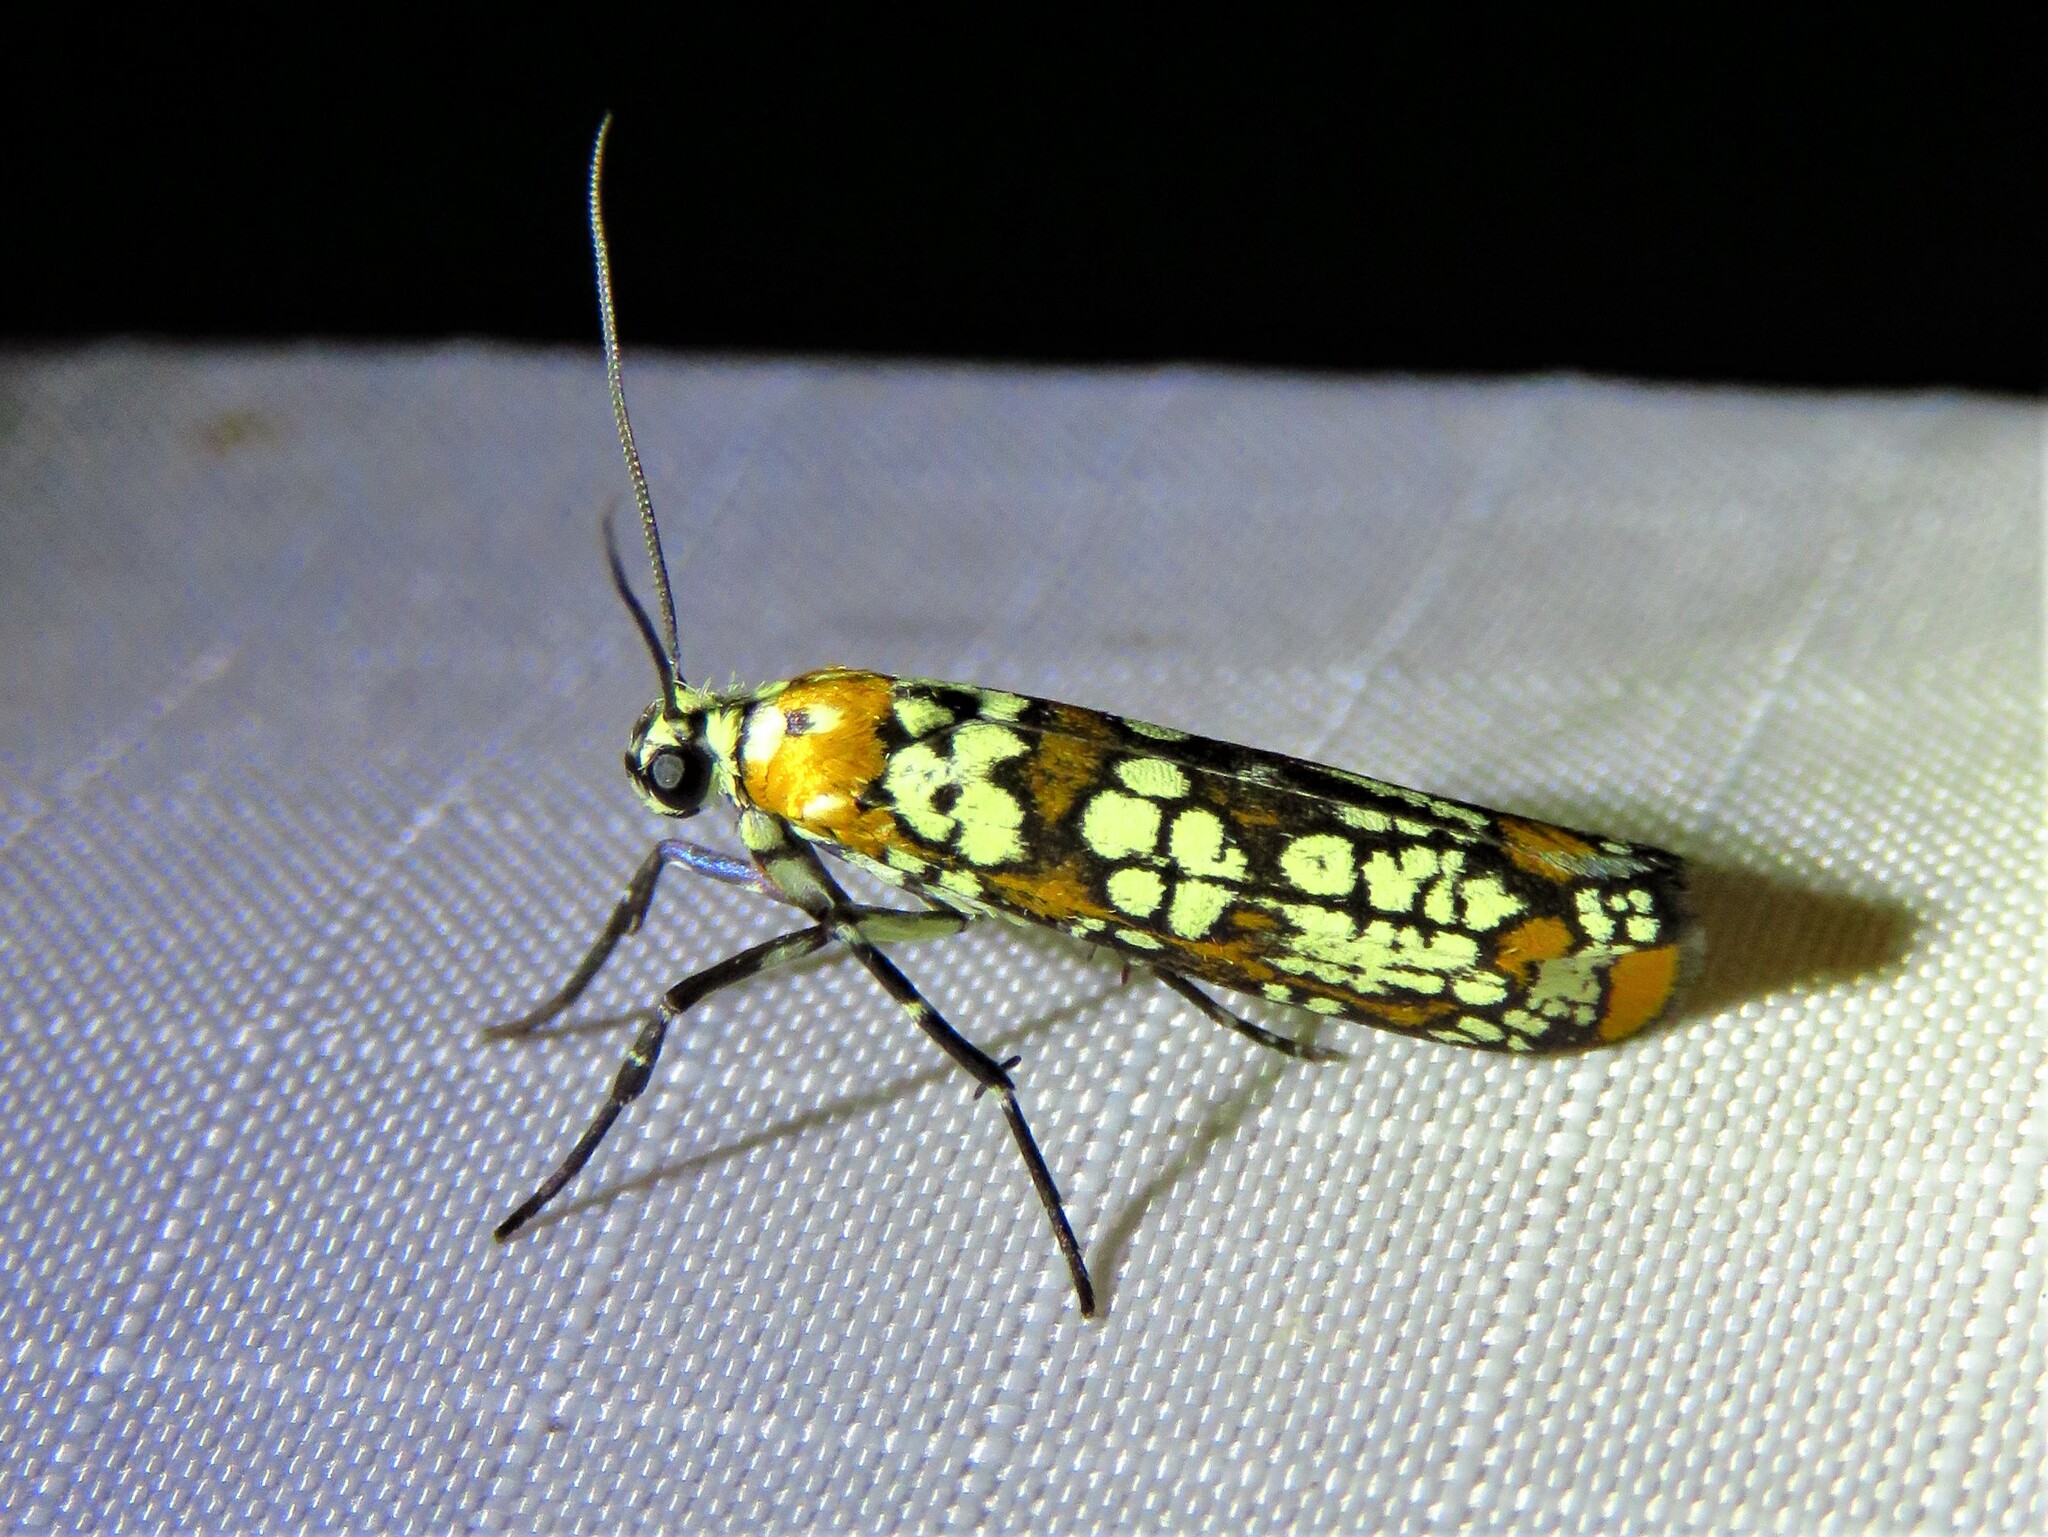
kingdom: Animalia
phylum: Arthropoda
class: Insecta
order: Lepidoptera
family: Attevidae
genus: Atteva
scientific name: Atteva punctella
